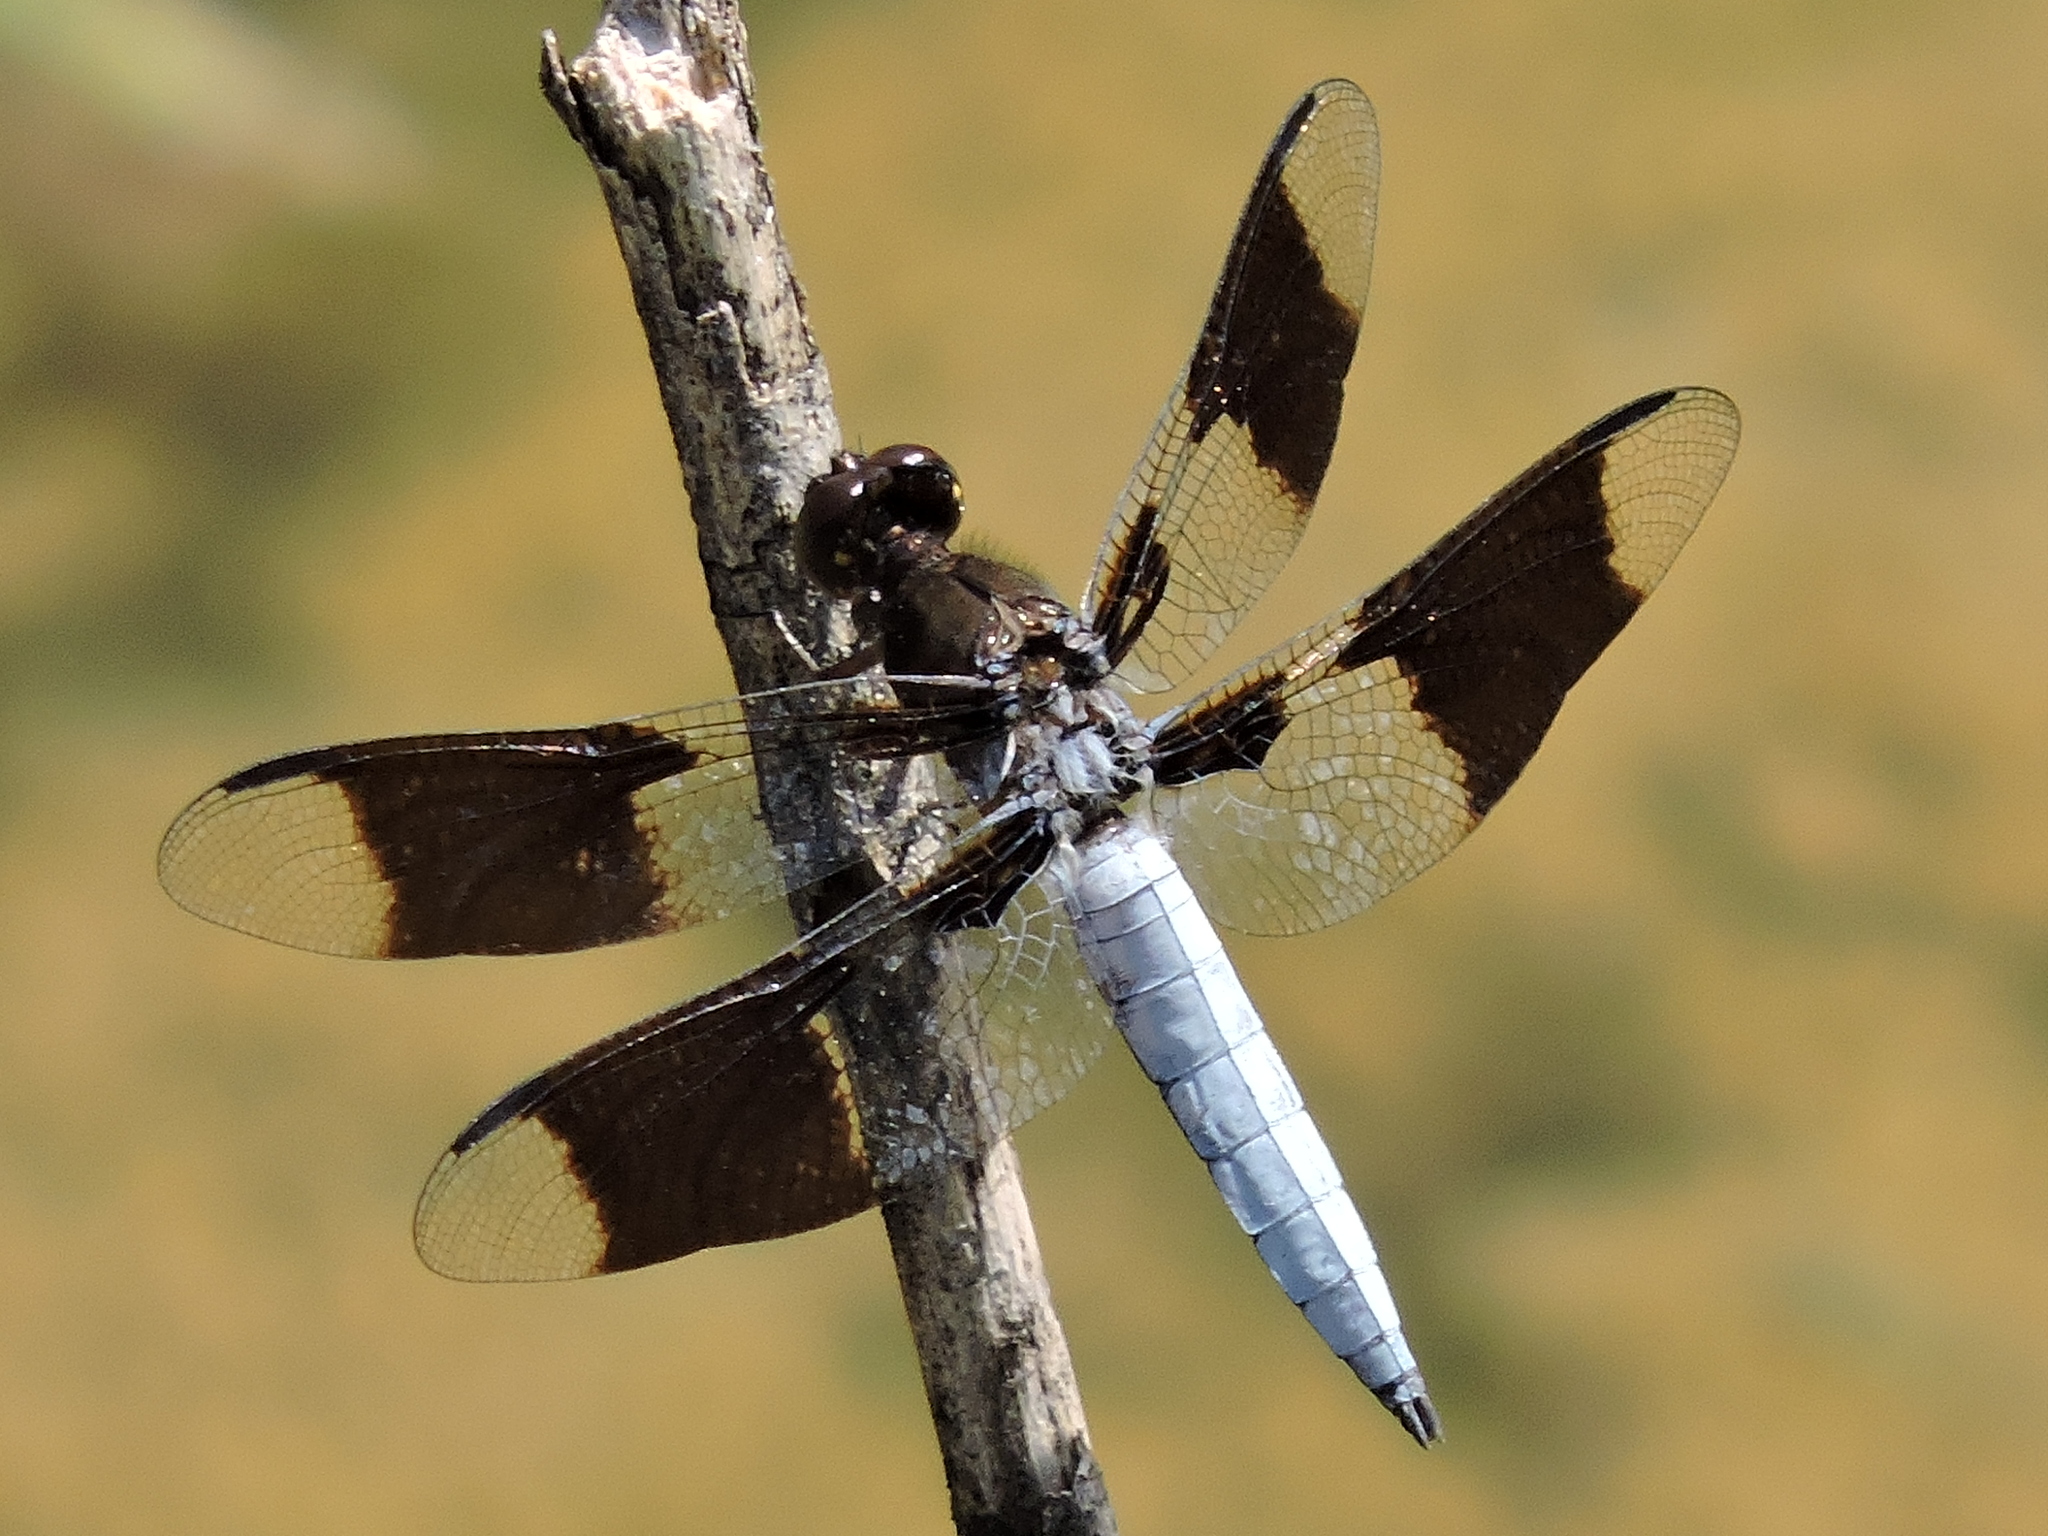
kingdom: Animalia
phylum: Arthropoda
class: Insecta
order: Odonata
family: Libellulidae
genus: Plathemis
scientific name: Plathemis lydia
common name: Common whitetail
